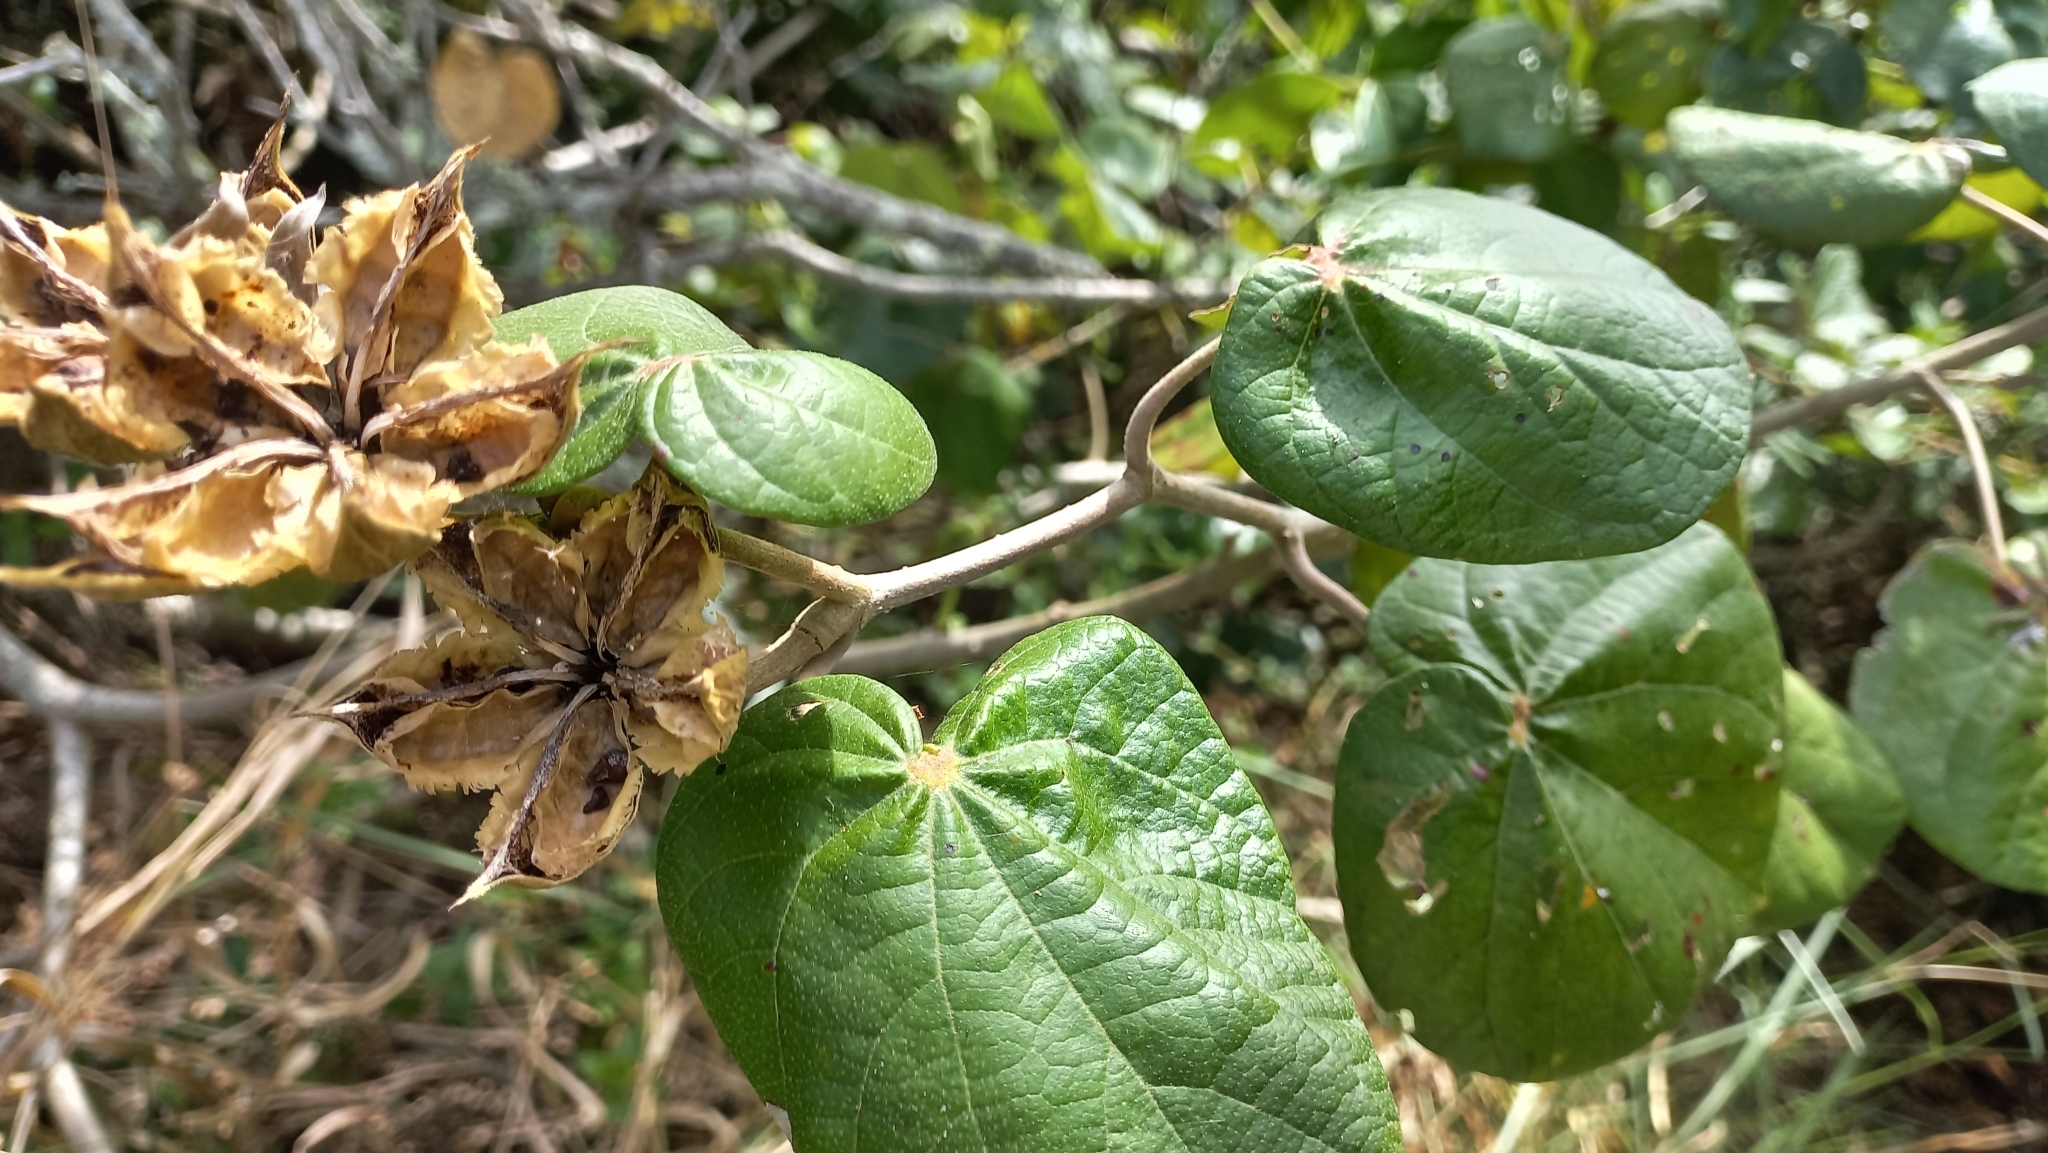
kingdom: Plantae
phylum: Tracheophyta
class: Magnoliopsida
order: Malvales
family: Malvaceae
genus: Talipariti
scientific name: Talipariti pernambucense
